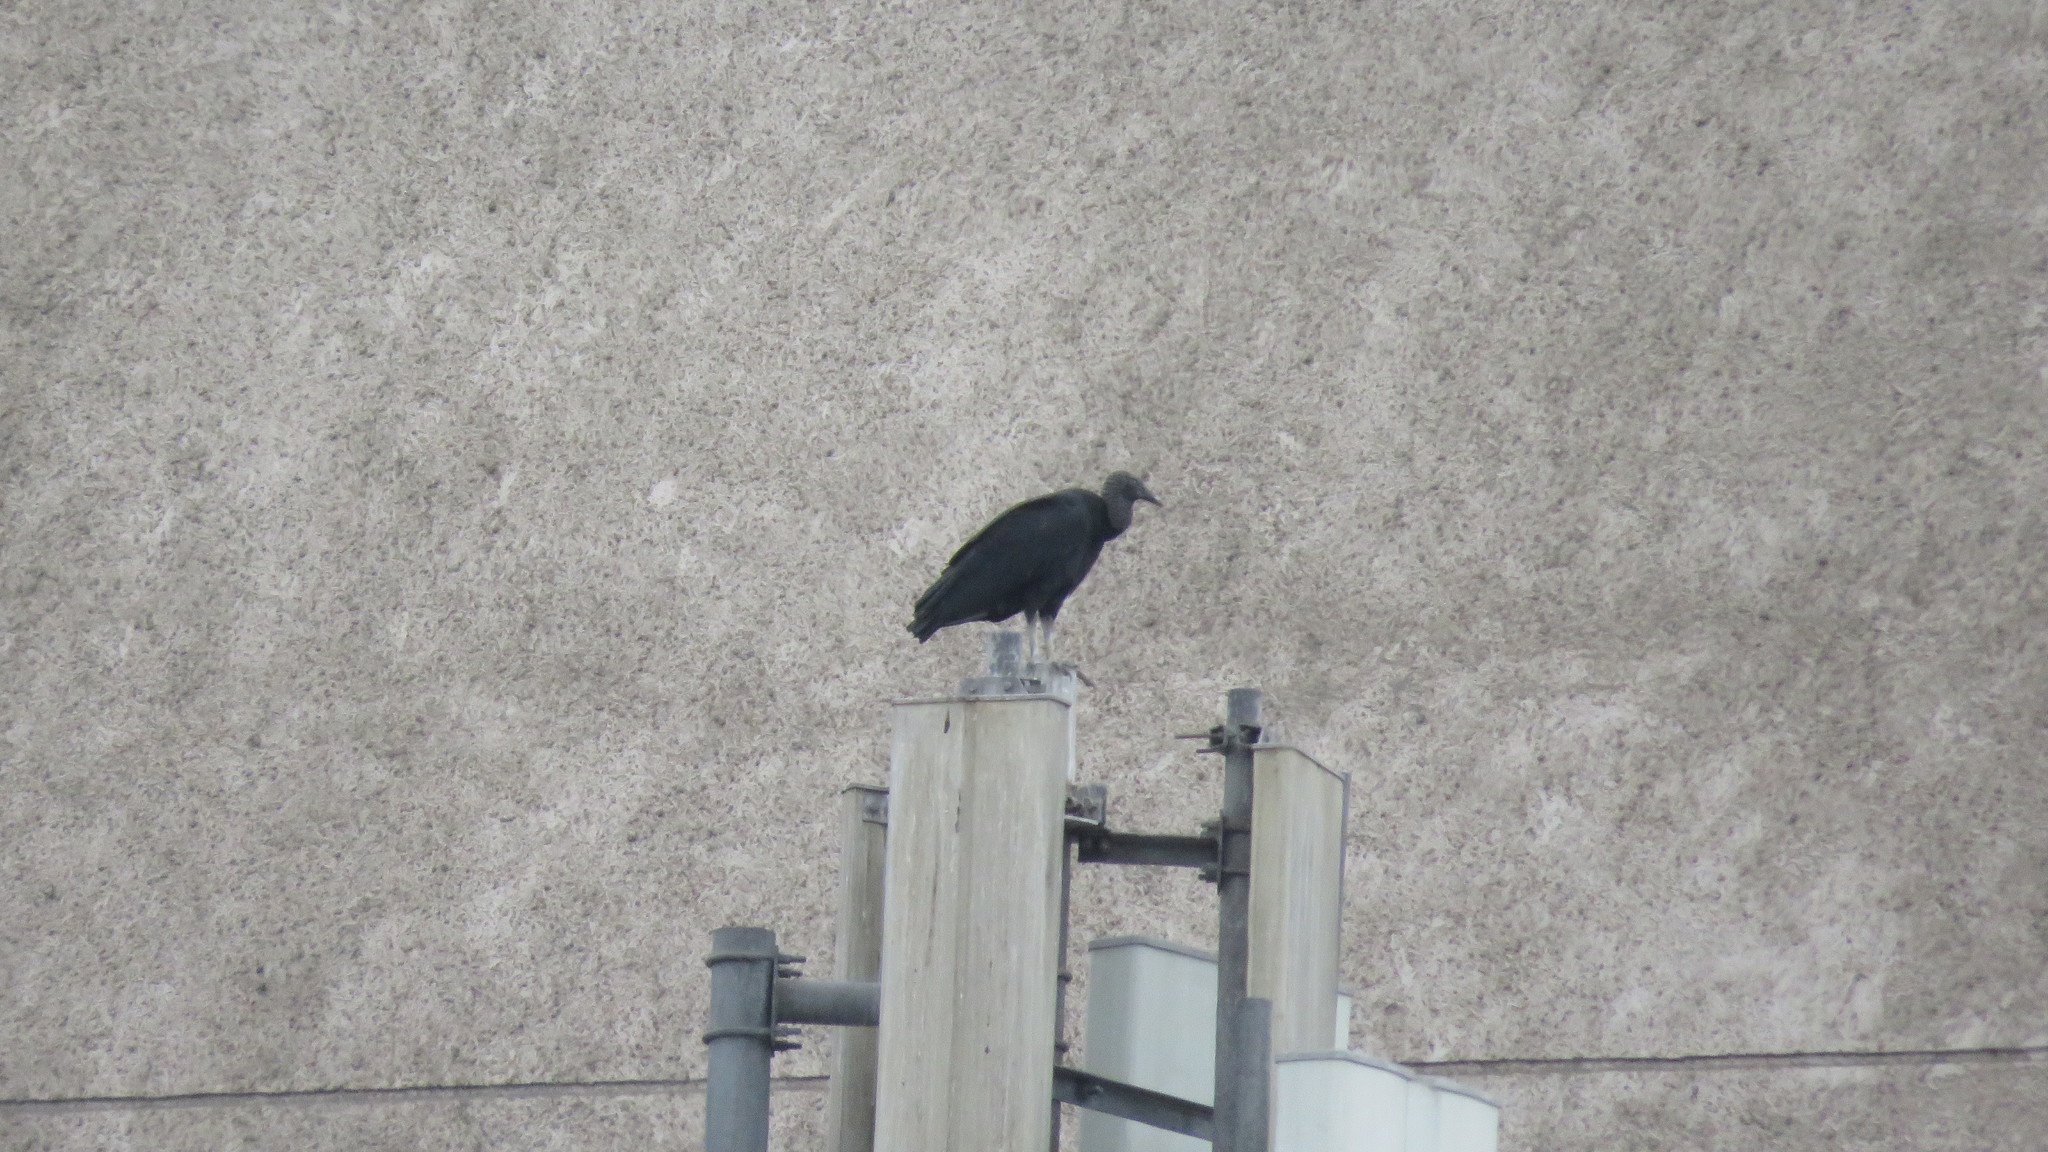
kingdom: Animalia
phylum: Chordata
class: Aves
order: Accipitriformes
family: Cathartidae
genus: Coragyps
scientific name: Coragyps atratus
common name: Black vulture
